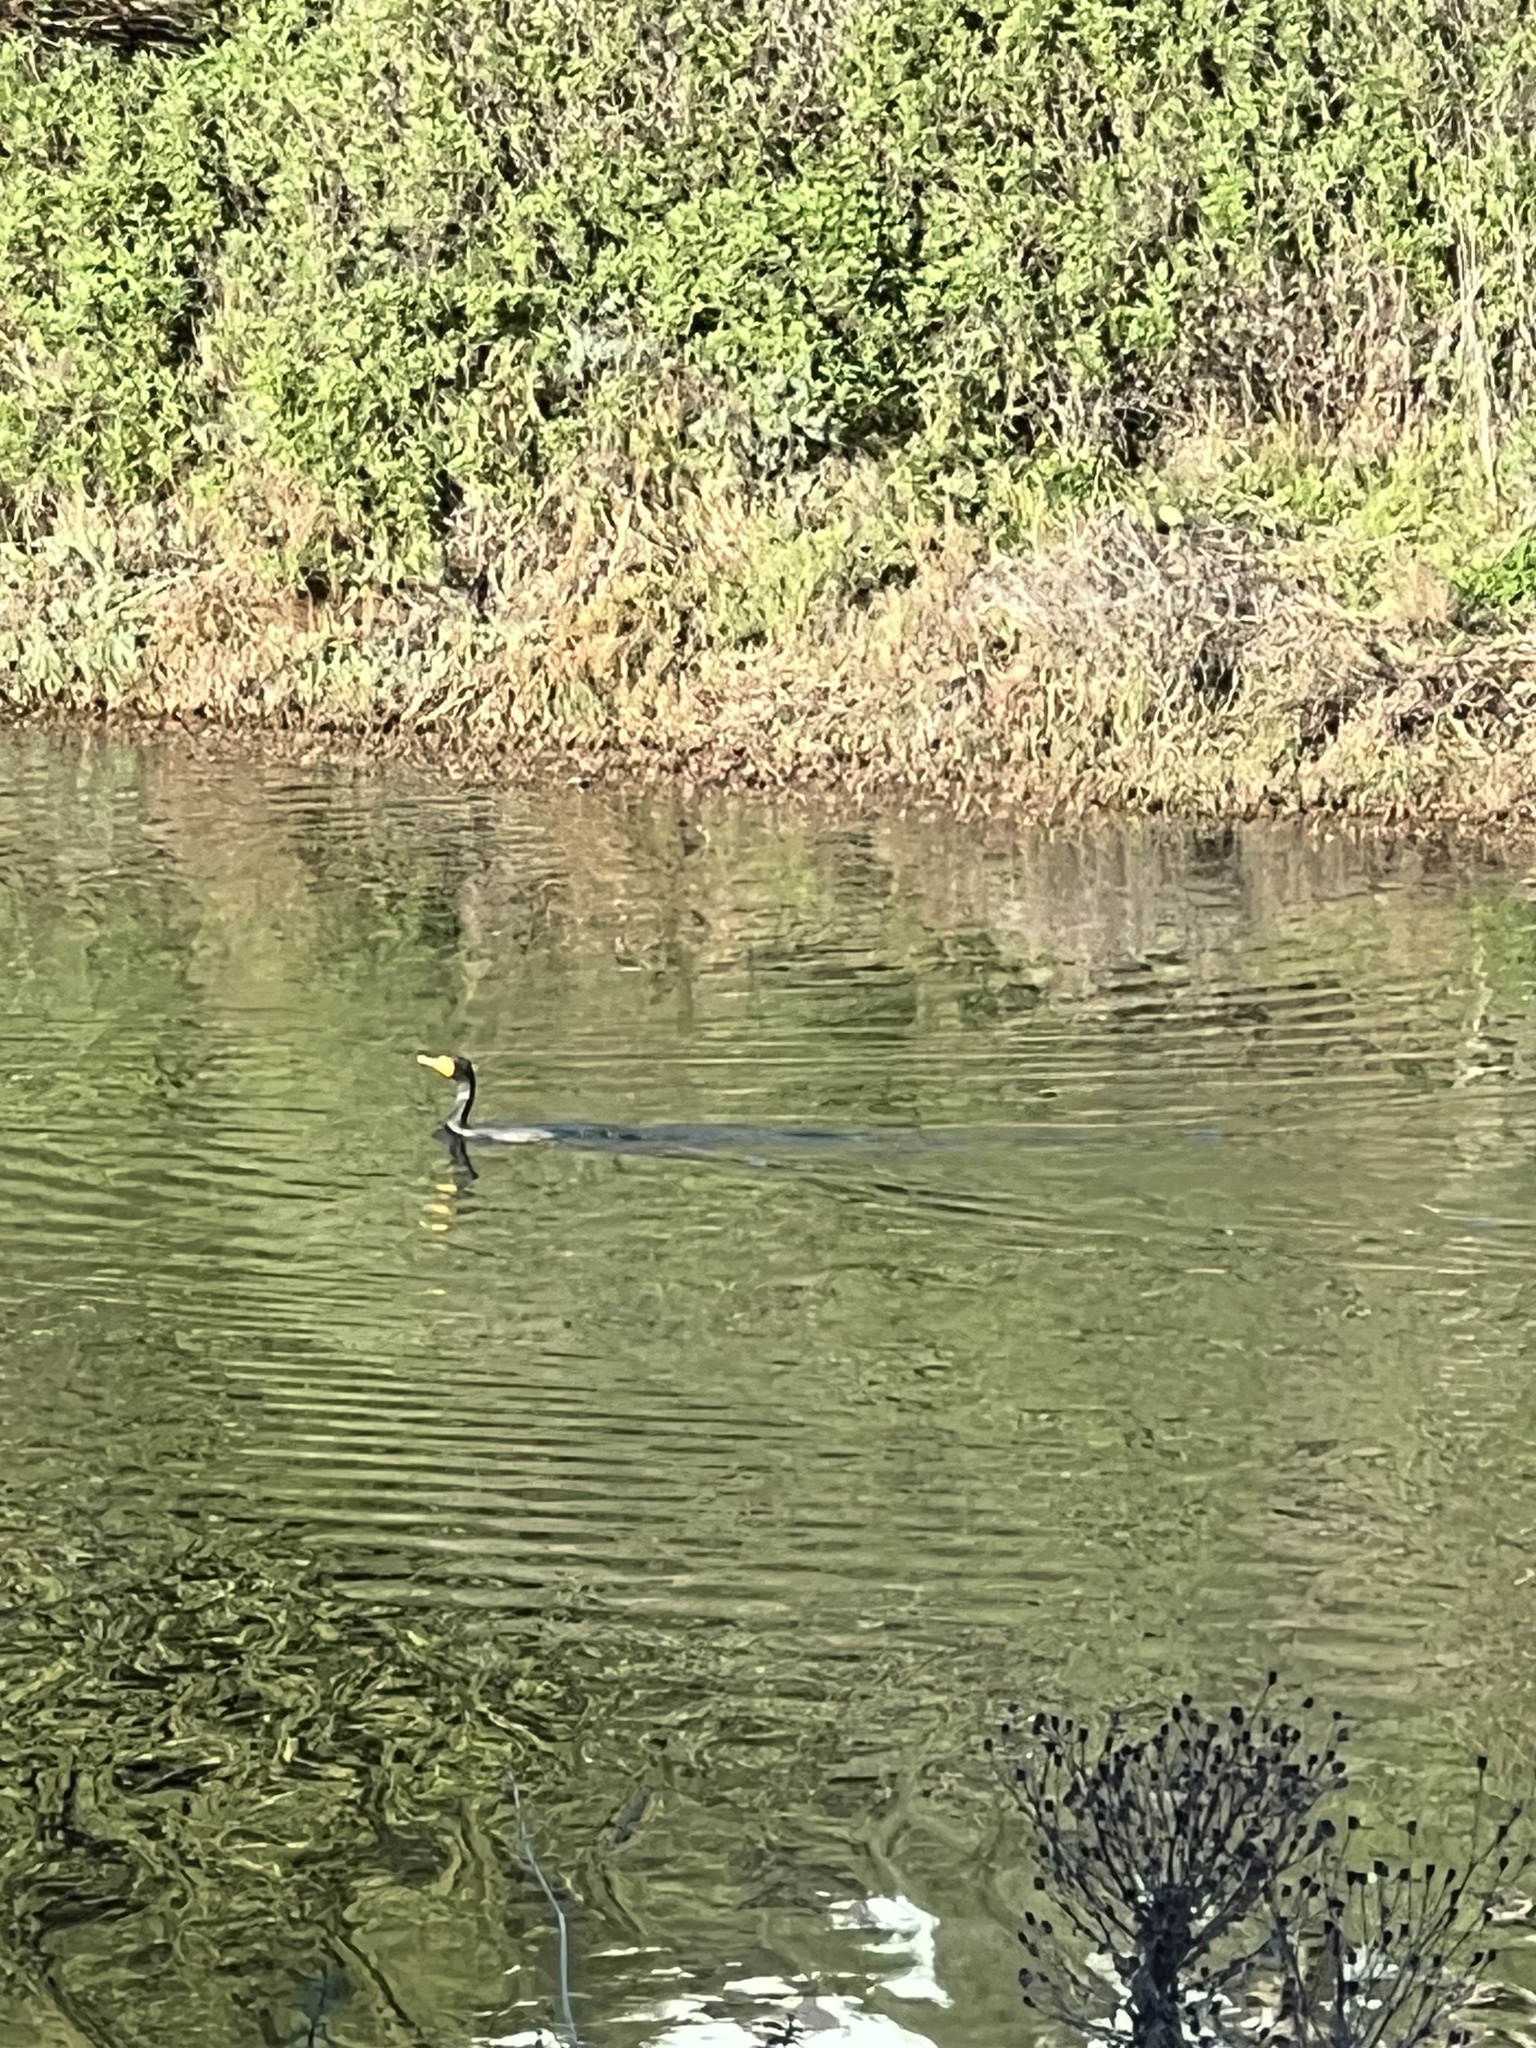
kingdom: Animalia
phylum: Chordata
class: Aves
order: Suliformes
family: Phalacrocoracidae
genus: Phalacrocorax
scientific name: Phalacrocorax auritus
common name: Double-crested cormorant
